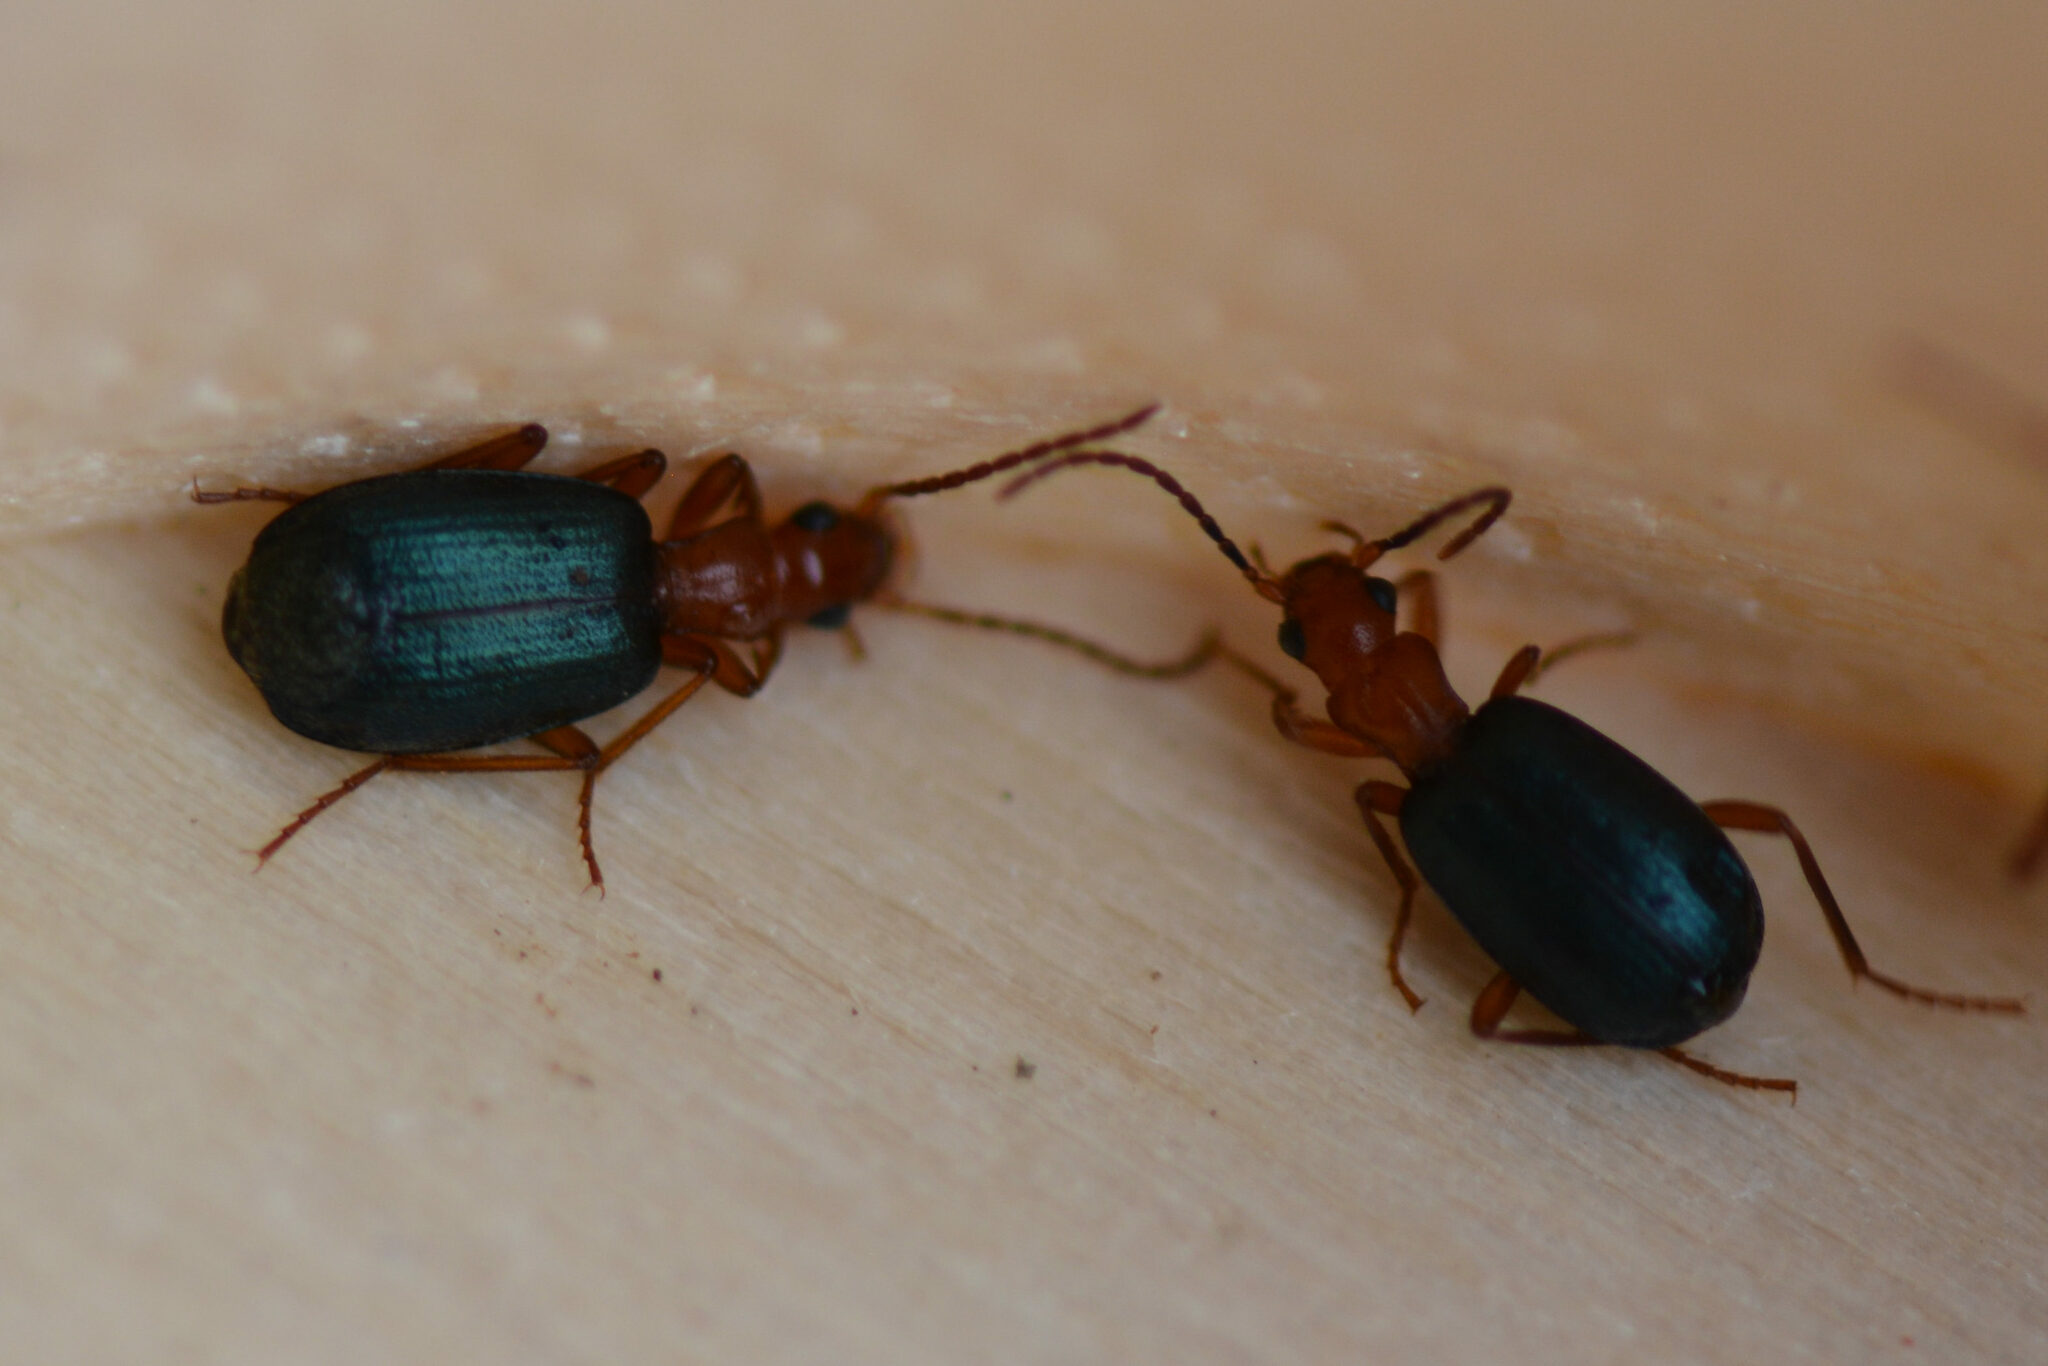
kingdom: Animalia
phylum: Arthropoda
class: Insecta
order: Coleoptera
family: Carabidae
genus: Brachinus
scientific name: Brachinus crepitans
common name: Bombadier beetle
